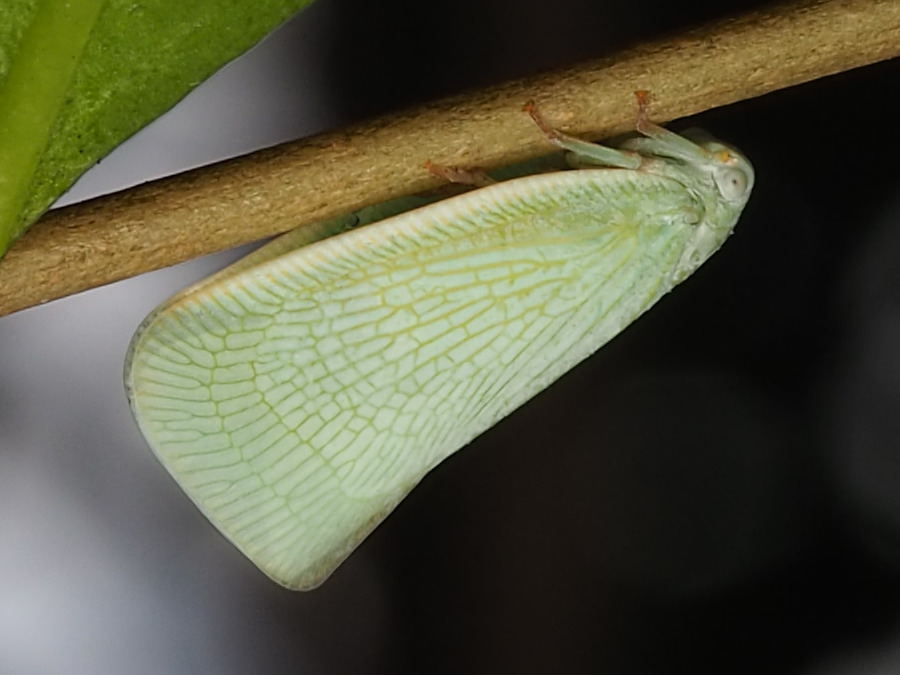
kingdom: Animalia
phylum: Arthropoda
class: Insecta
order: Hemiptera
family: Flatidae
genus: Flatormenis
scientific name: Flatormenis proxima
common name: Northern flatid planthopper
